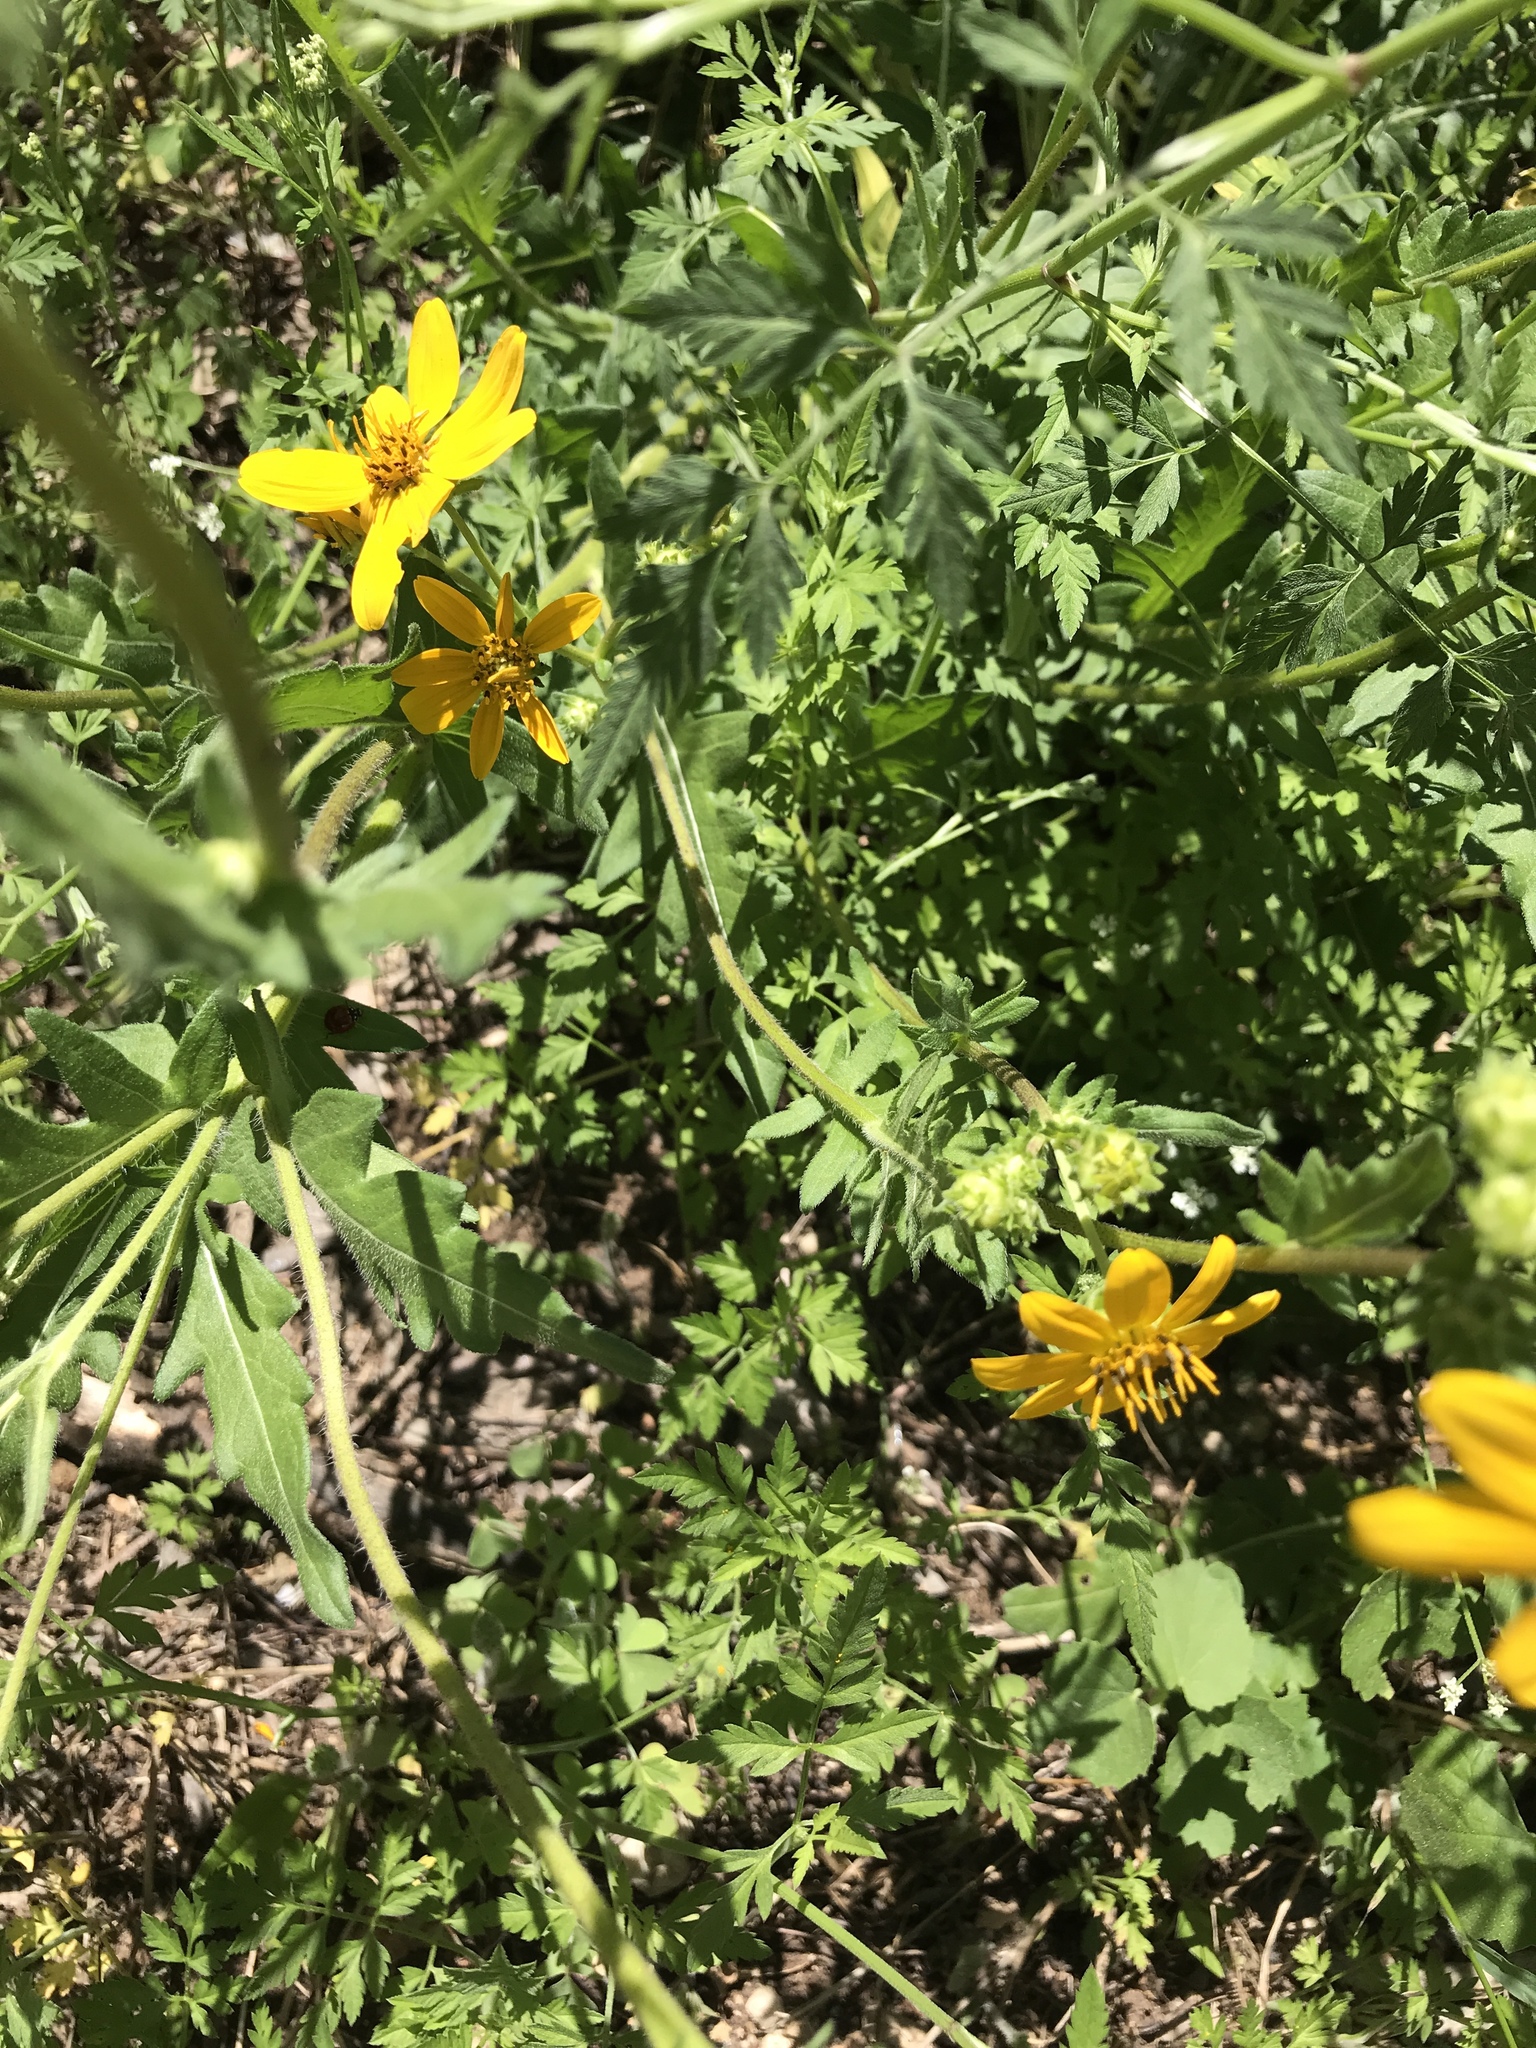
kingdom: Plantae
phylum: Tracheophyta
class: Magnoliopsida
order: Asterales
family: Asteraceae
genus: Engelmannia
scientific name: Engelmannia peristenia
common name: Engelmann's daisy
